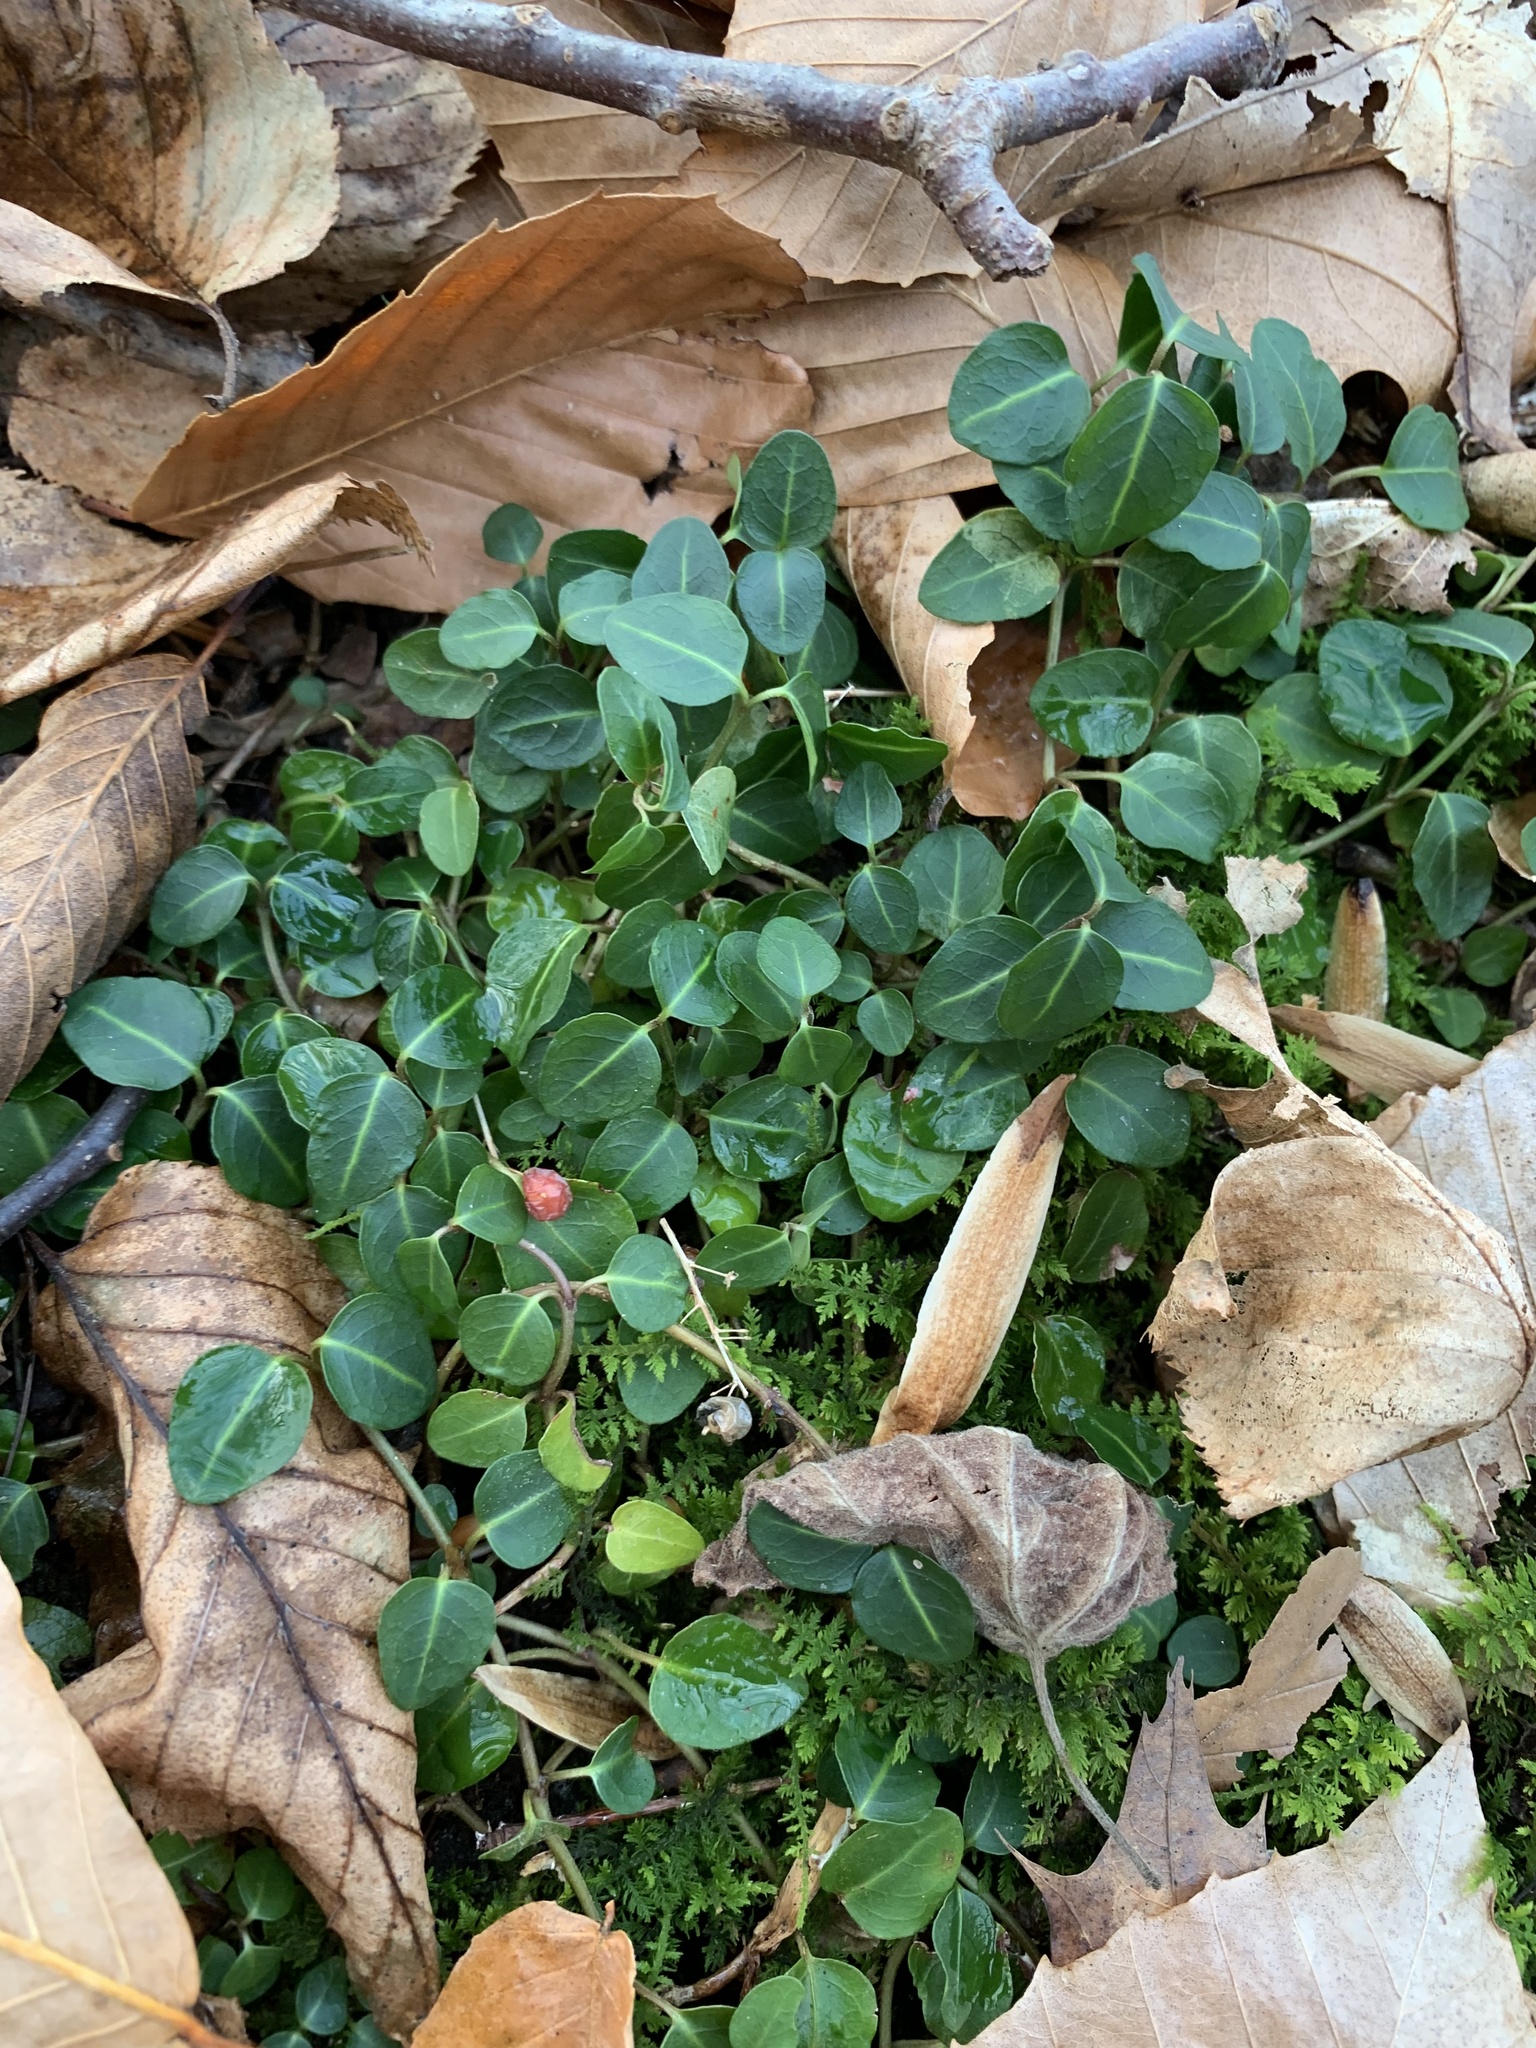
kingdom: Plantae
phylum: Tracheophyta
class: Magnoliopsida
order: Gentianales
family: Rubiaceae
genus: Mitchella
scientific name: Mitchella repens
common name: Partridge-berry
